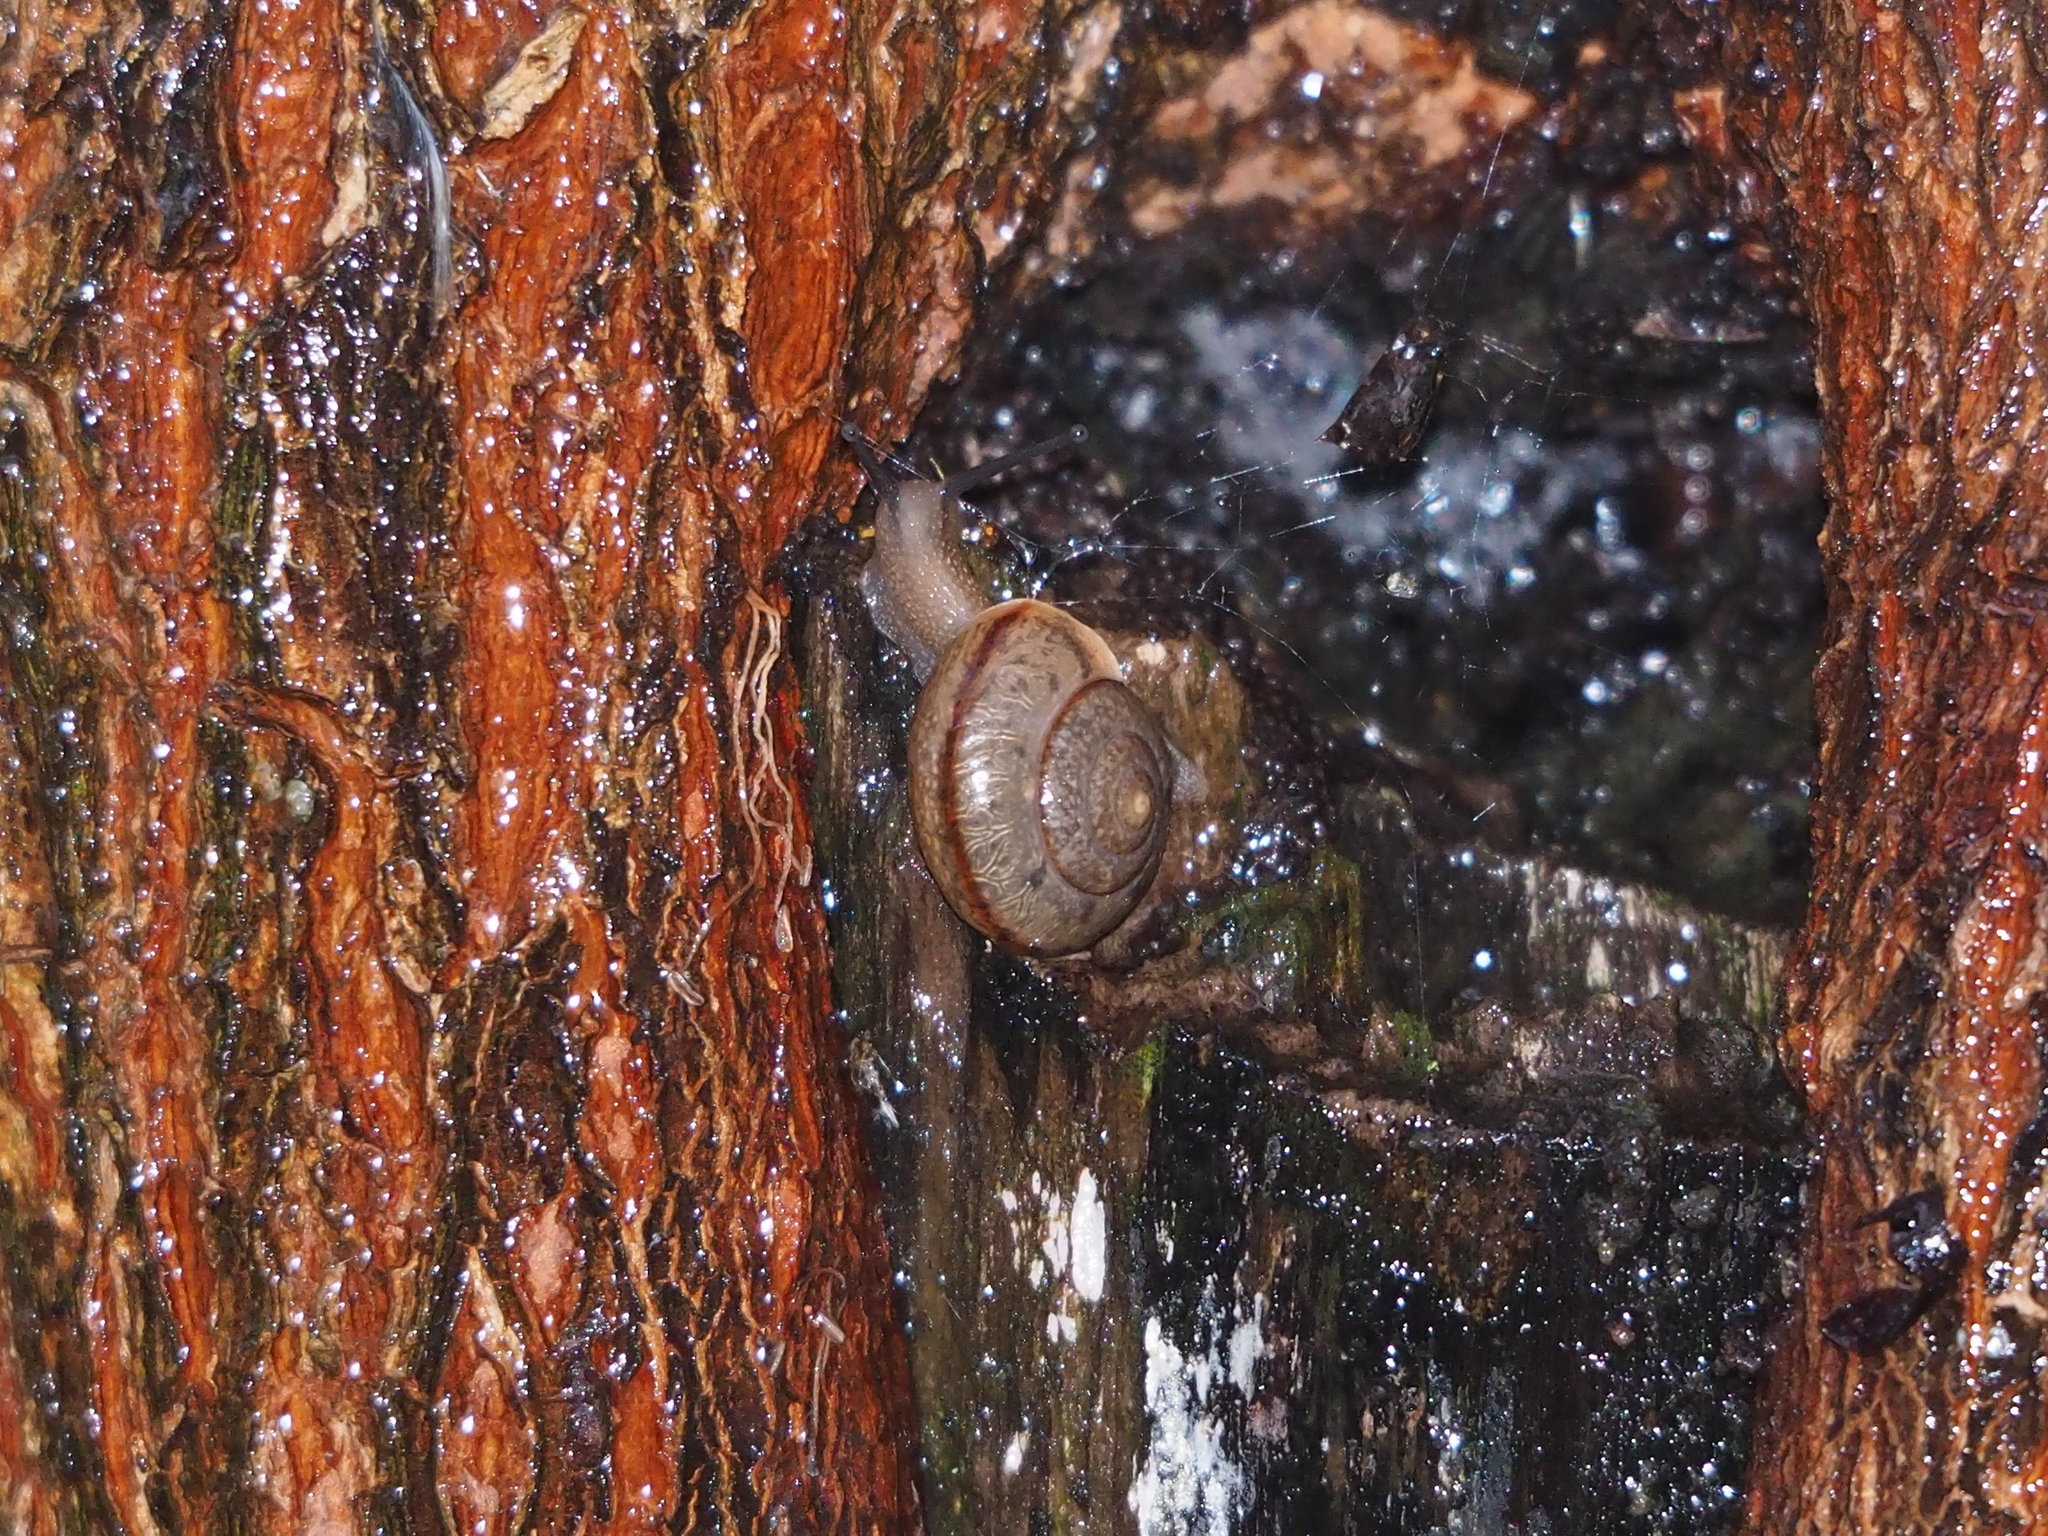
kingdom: Animalia
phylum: Mollusca
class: Gastropoda
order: Stylommatophora
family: Camaenidae
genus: Bradybaena
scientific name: Bradybaena similaris
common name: Asian trampsnail
